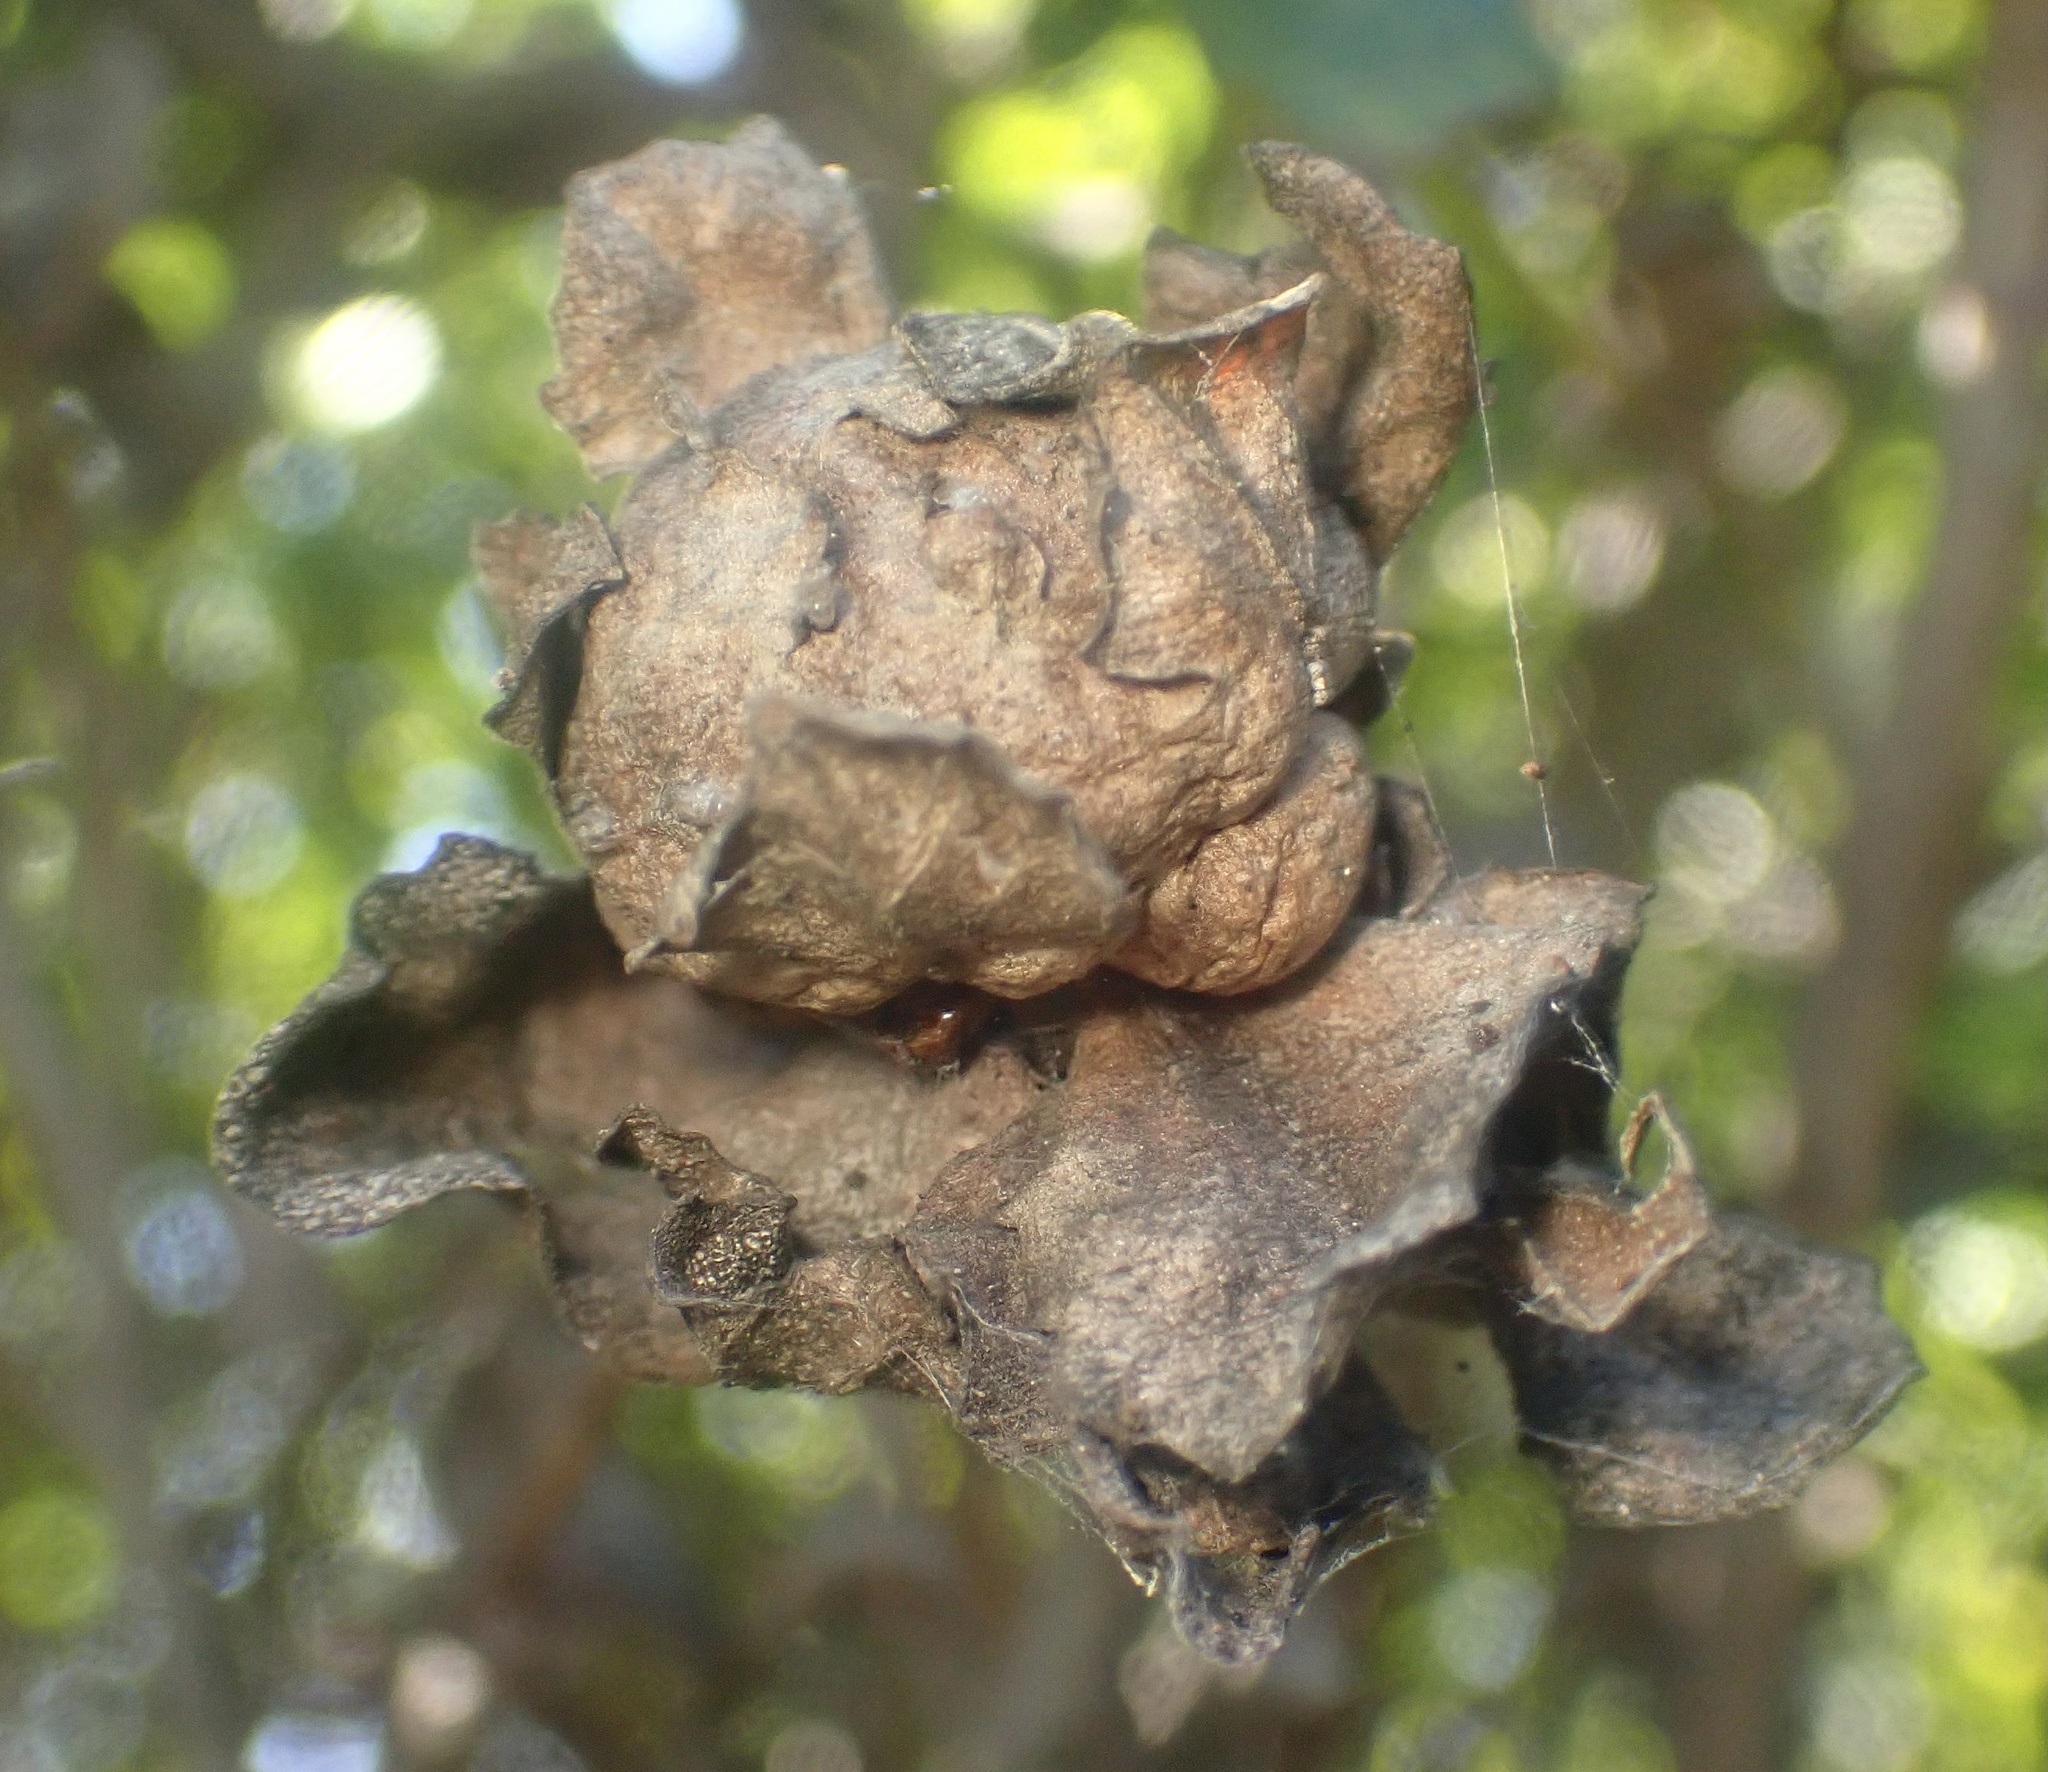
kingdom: Animalia
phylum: Arthropoda
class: Insecta
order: Diptera
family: Cecidomyiidae
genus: Rhopalomyia
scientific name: Rhopalomyia californica
